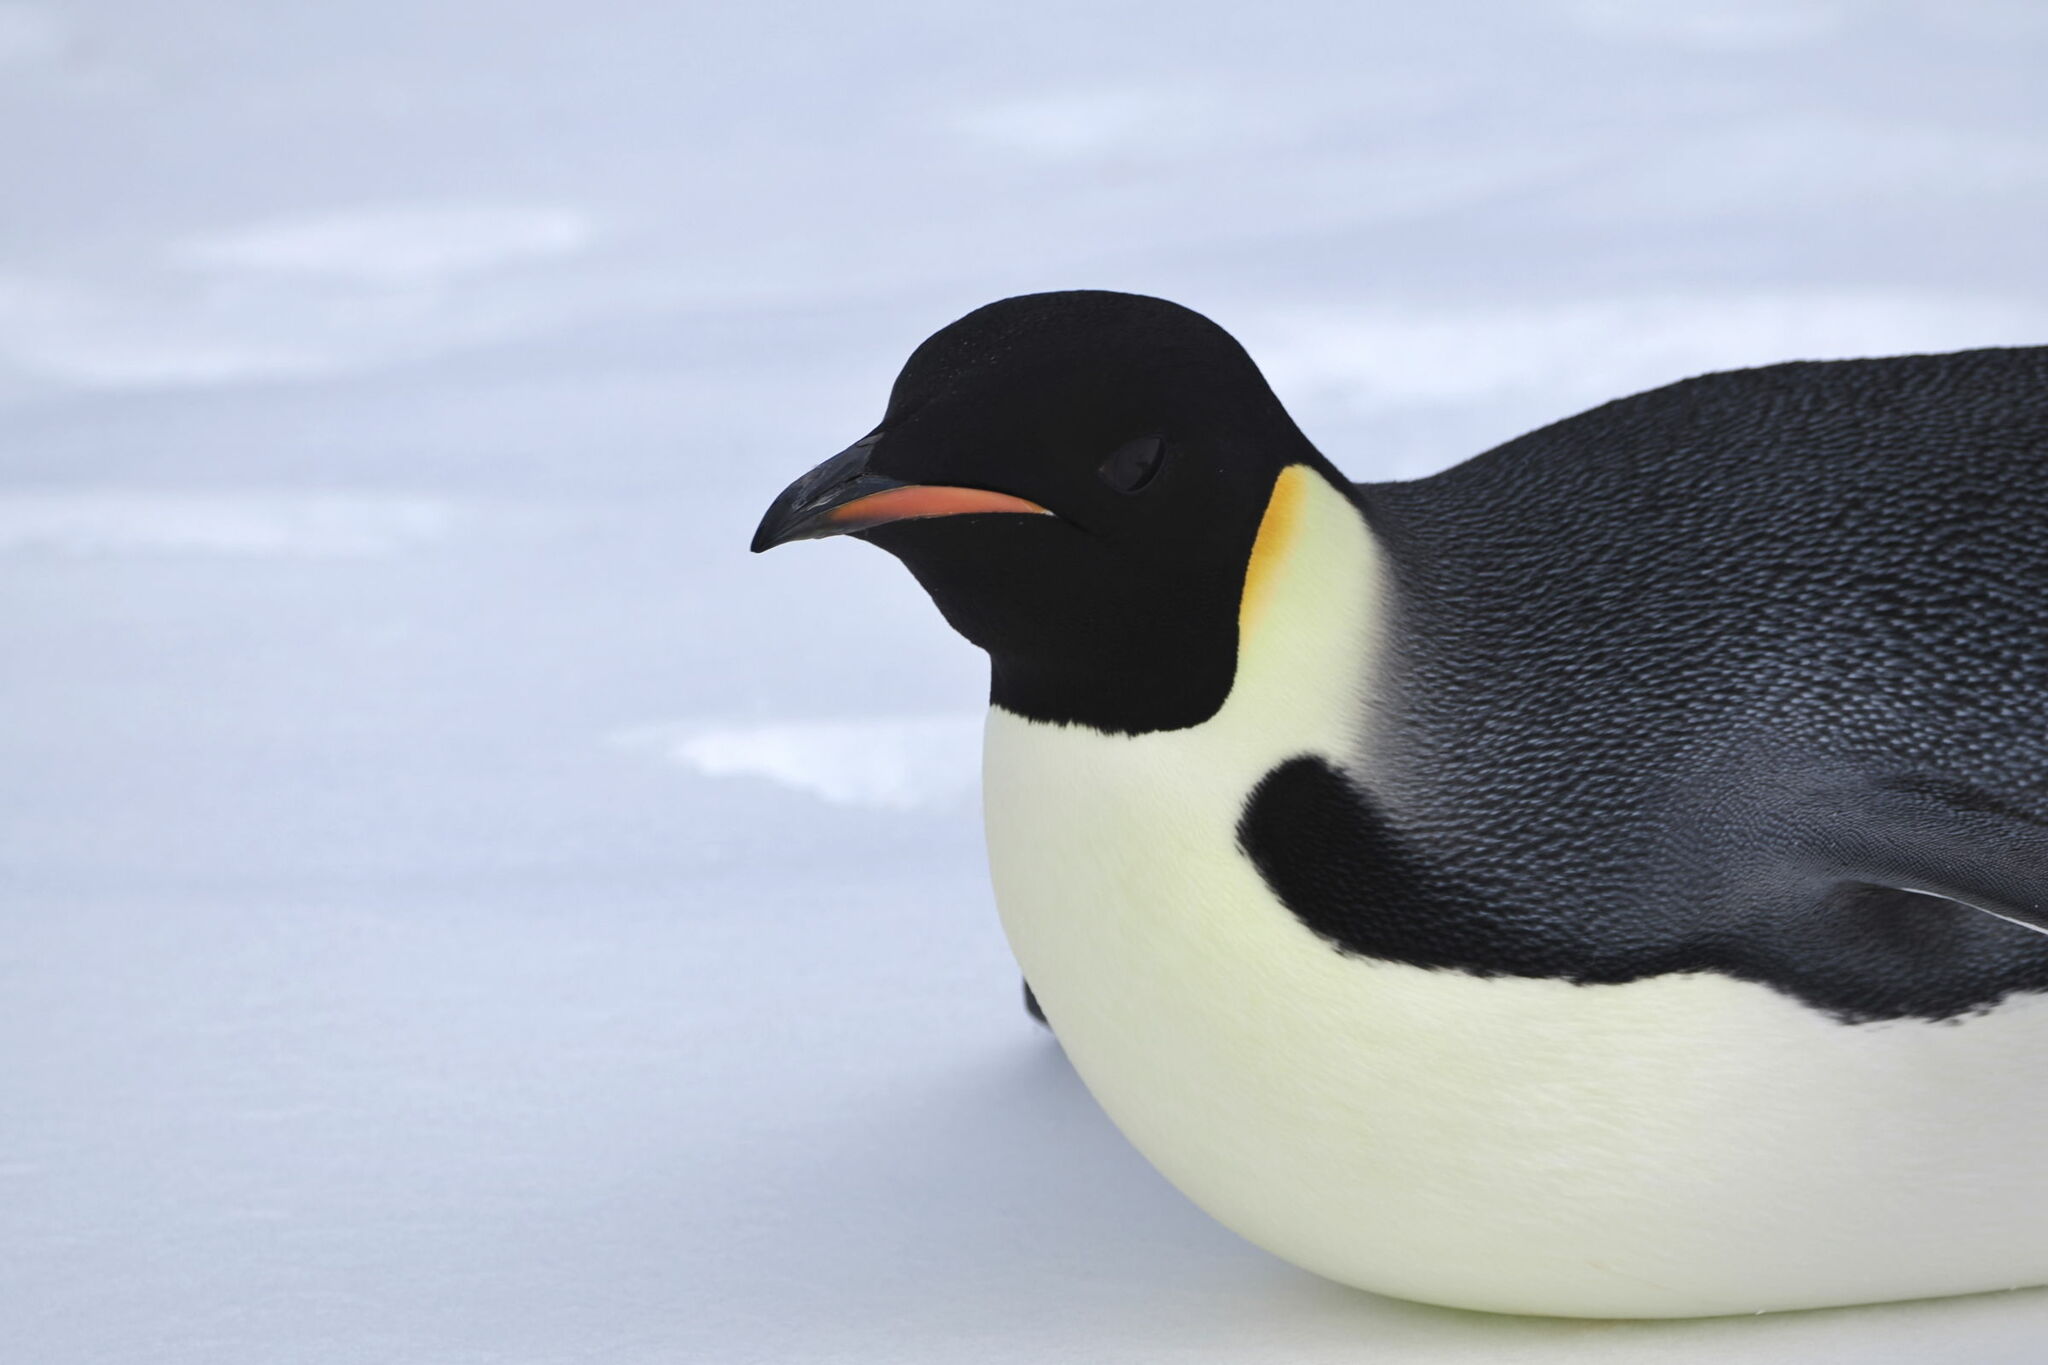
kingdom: Animalia
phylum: Chordata
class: Aves
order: Sphenisciformes
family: Spheniscidae
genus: Aptenodytes
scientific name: Aptenodytes forsteri
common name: Emperor penguin
